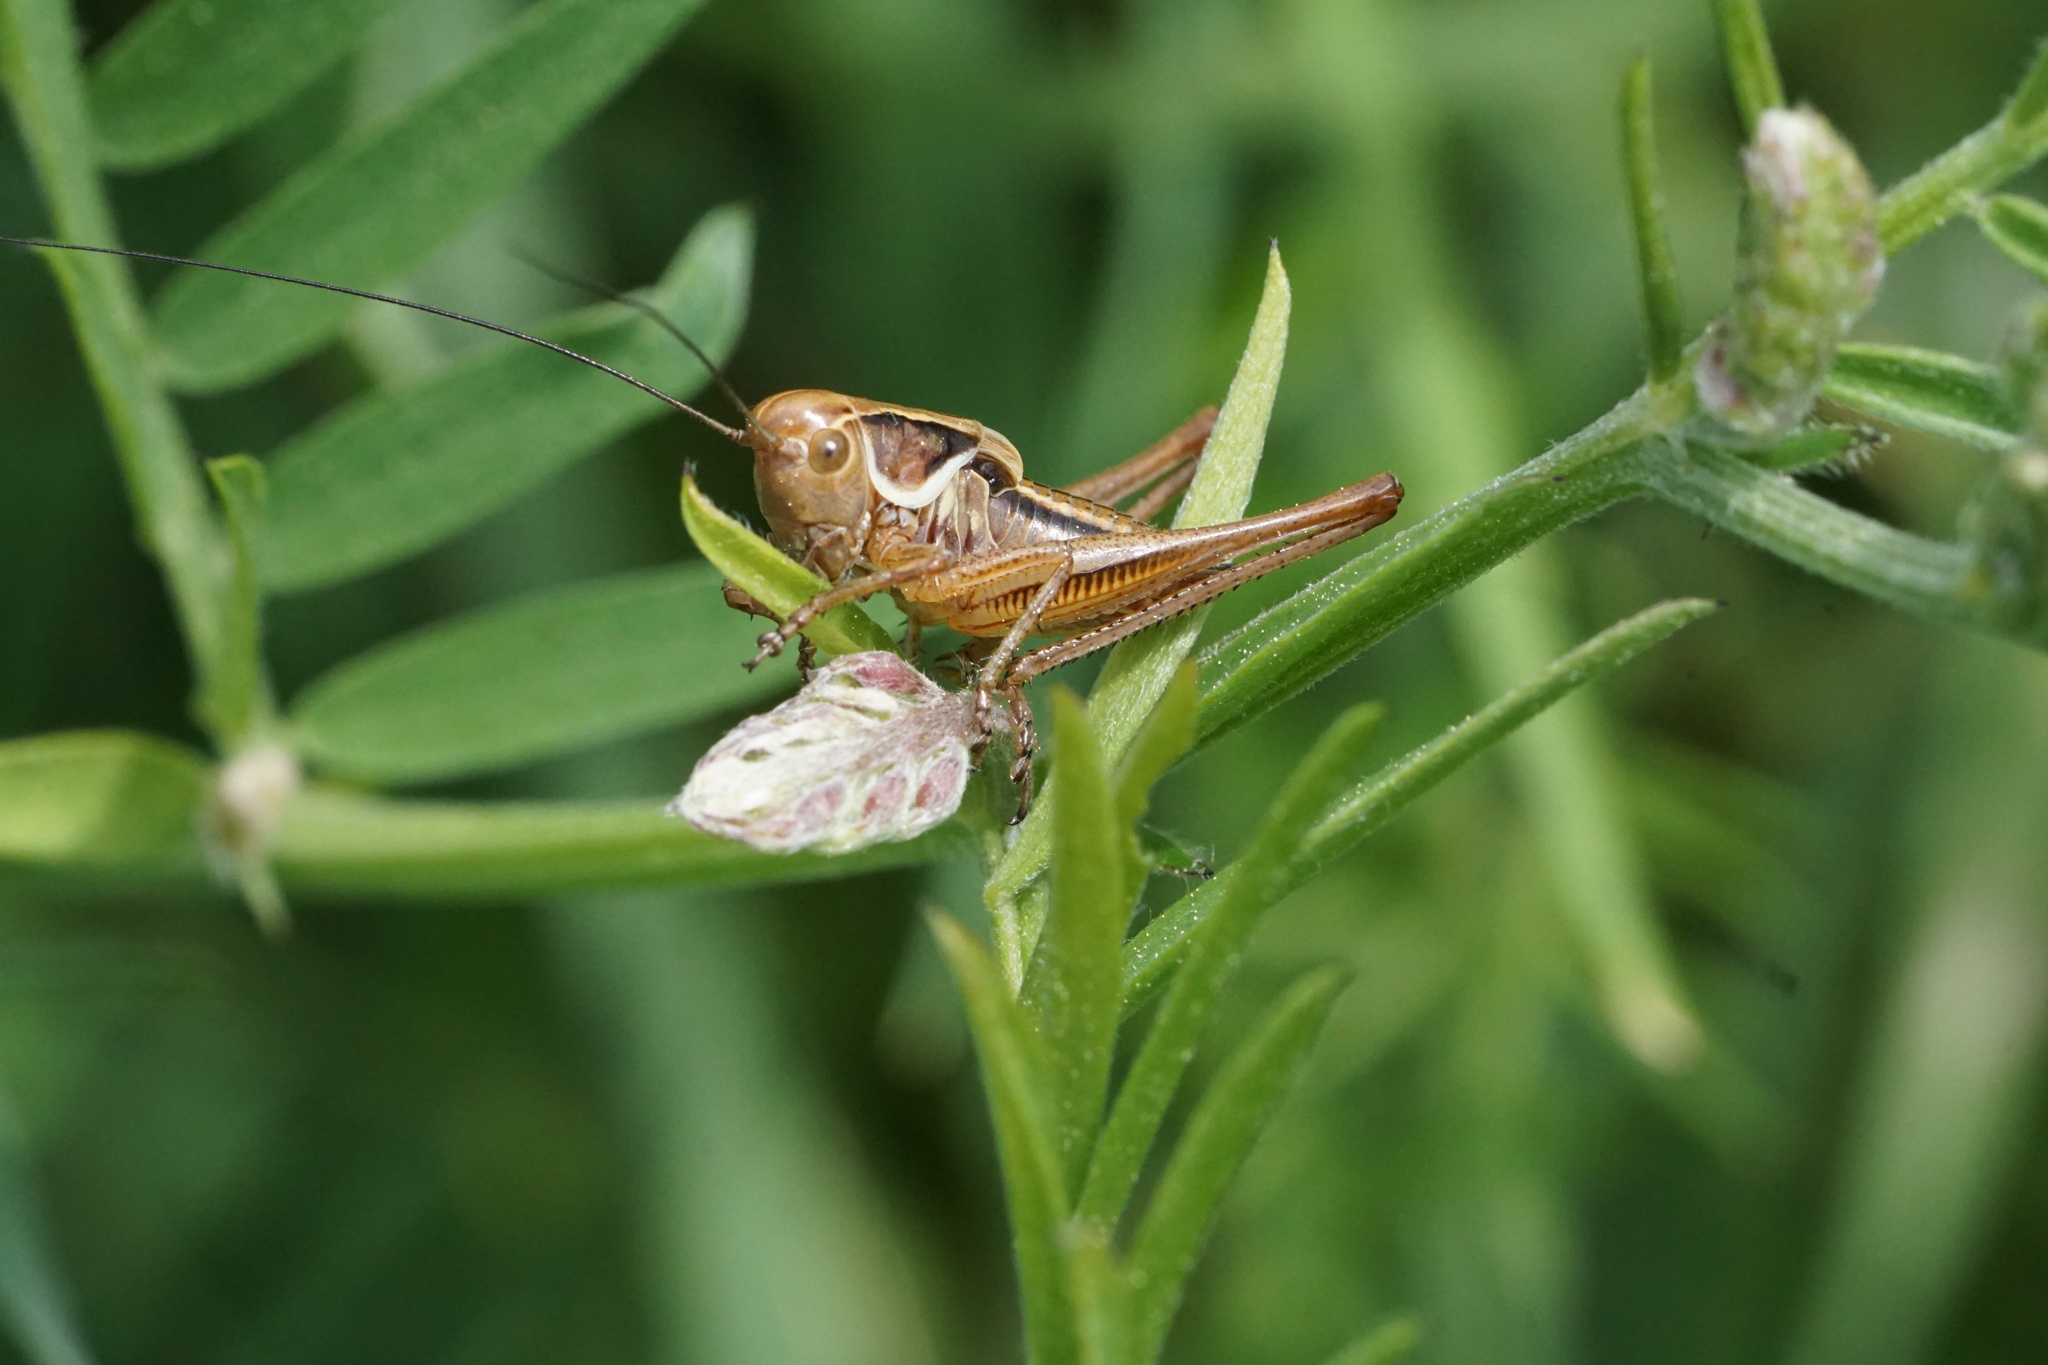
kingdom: Animalia
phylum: Arthropoda
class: Insecta
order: Orthoptera
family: Tettigoniidae
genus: Roeseliana
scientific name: Roeseliana roeselii
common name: Roesel's bush cricket
